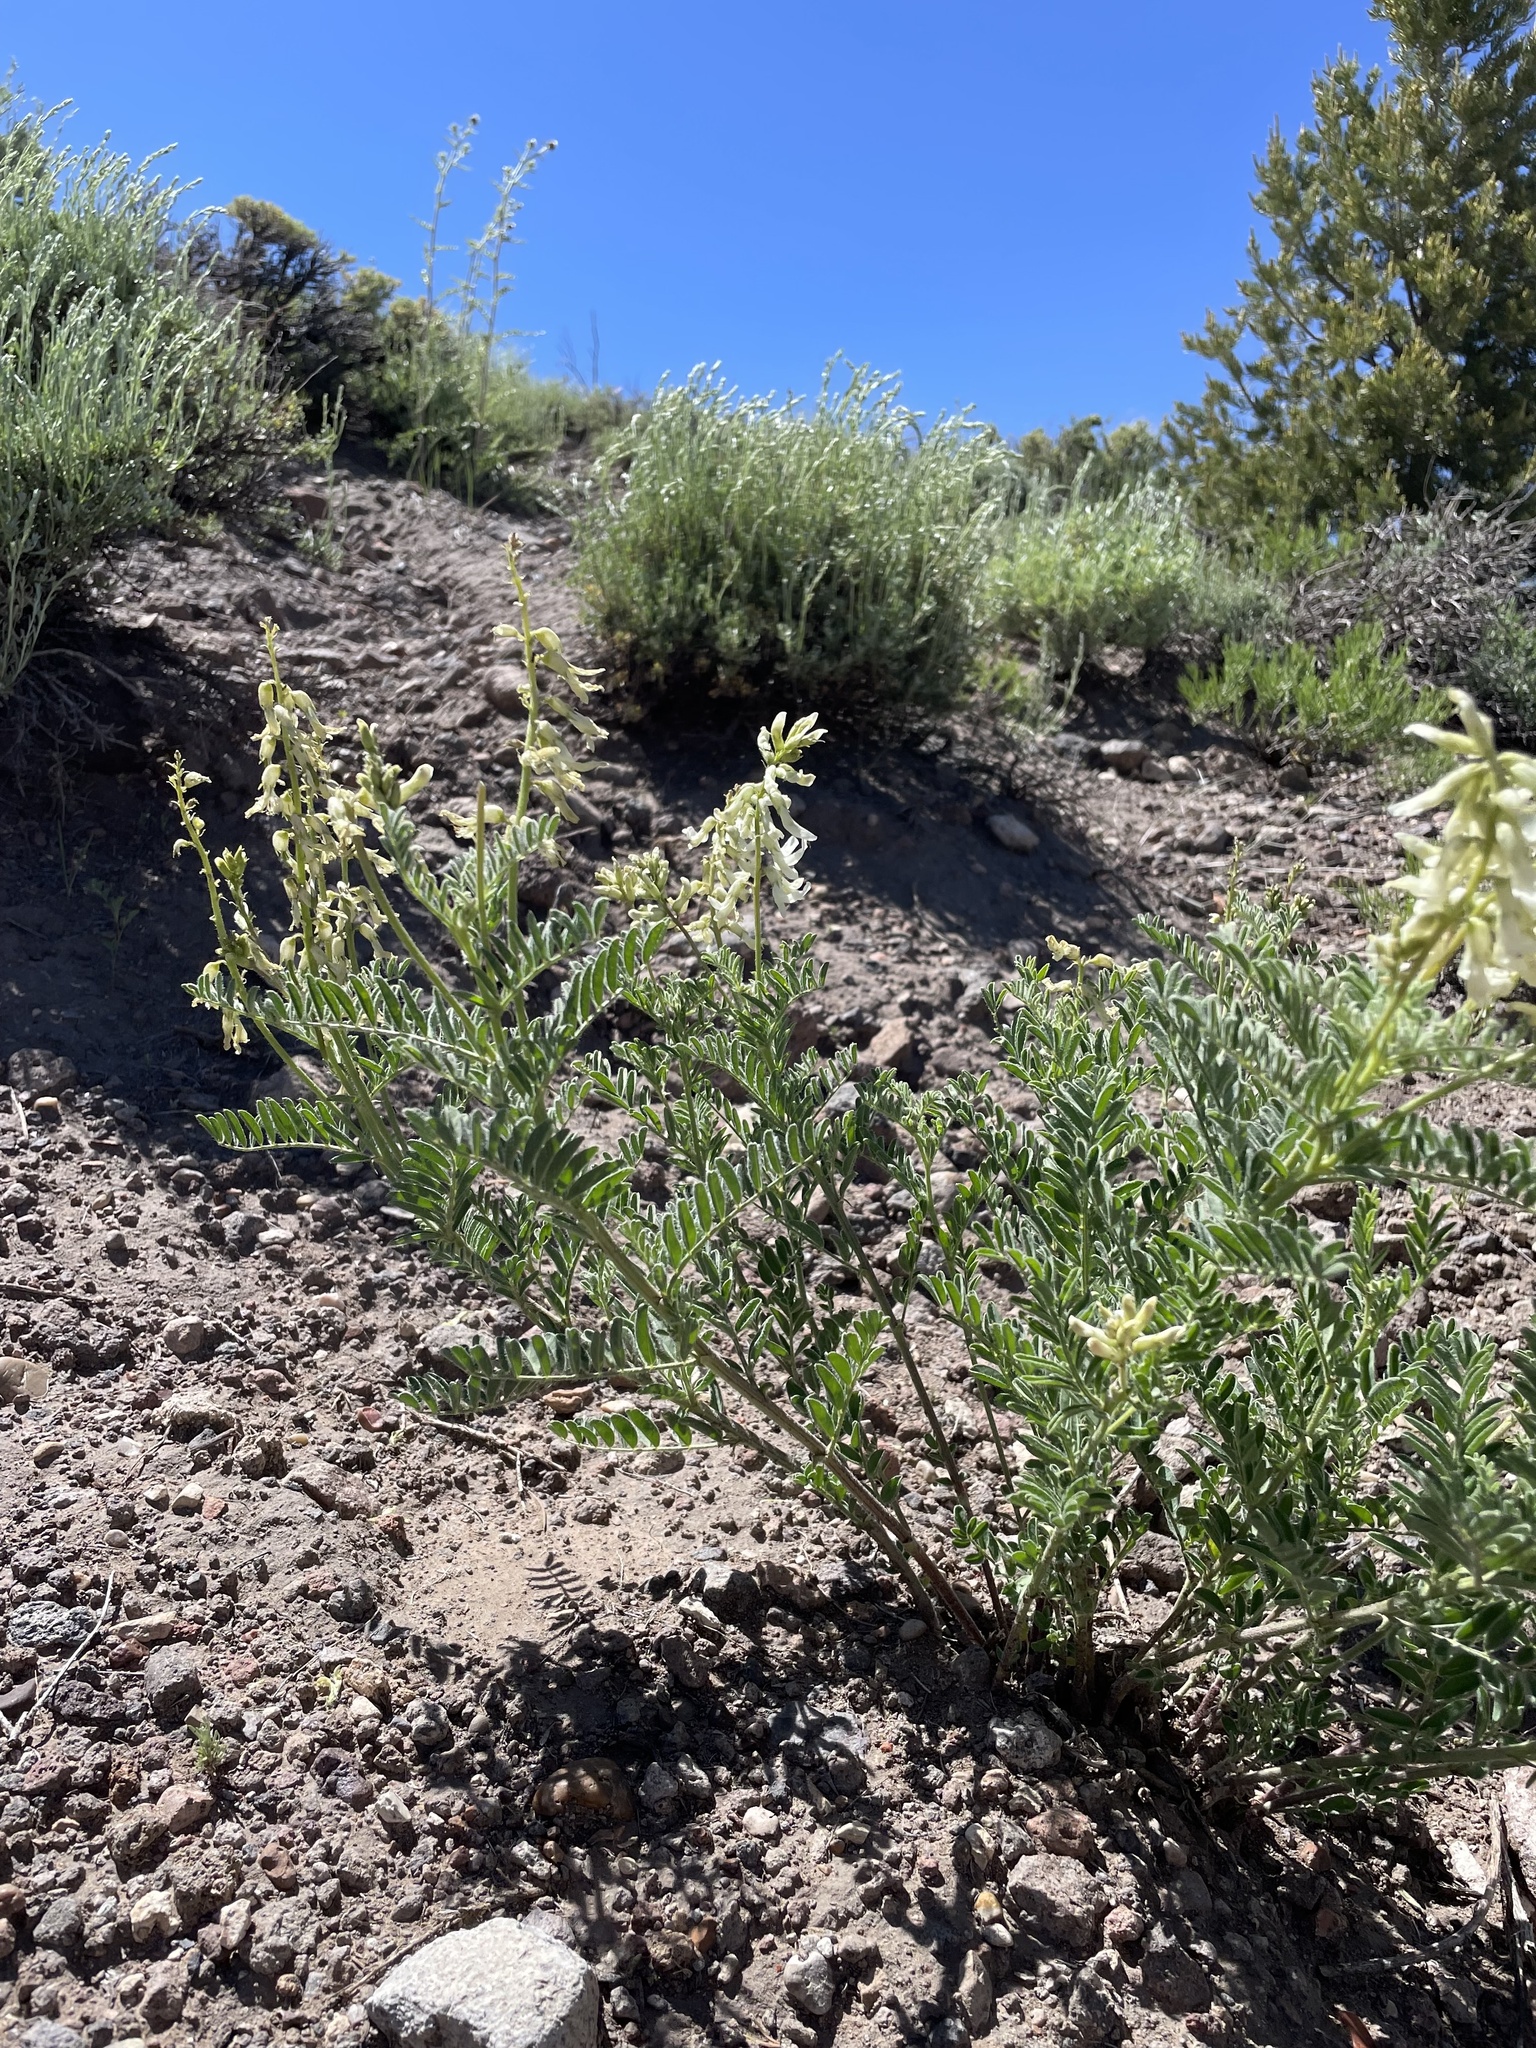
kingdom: Plantae
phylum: Tracheophyta
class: Magnoliopsida
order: Fabales
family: Fabaceae
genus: Astragalus
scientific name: Astragalus drummondii
